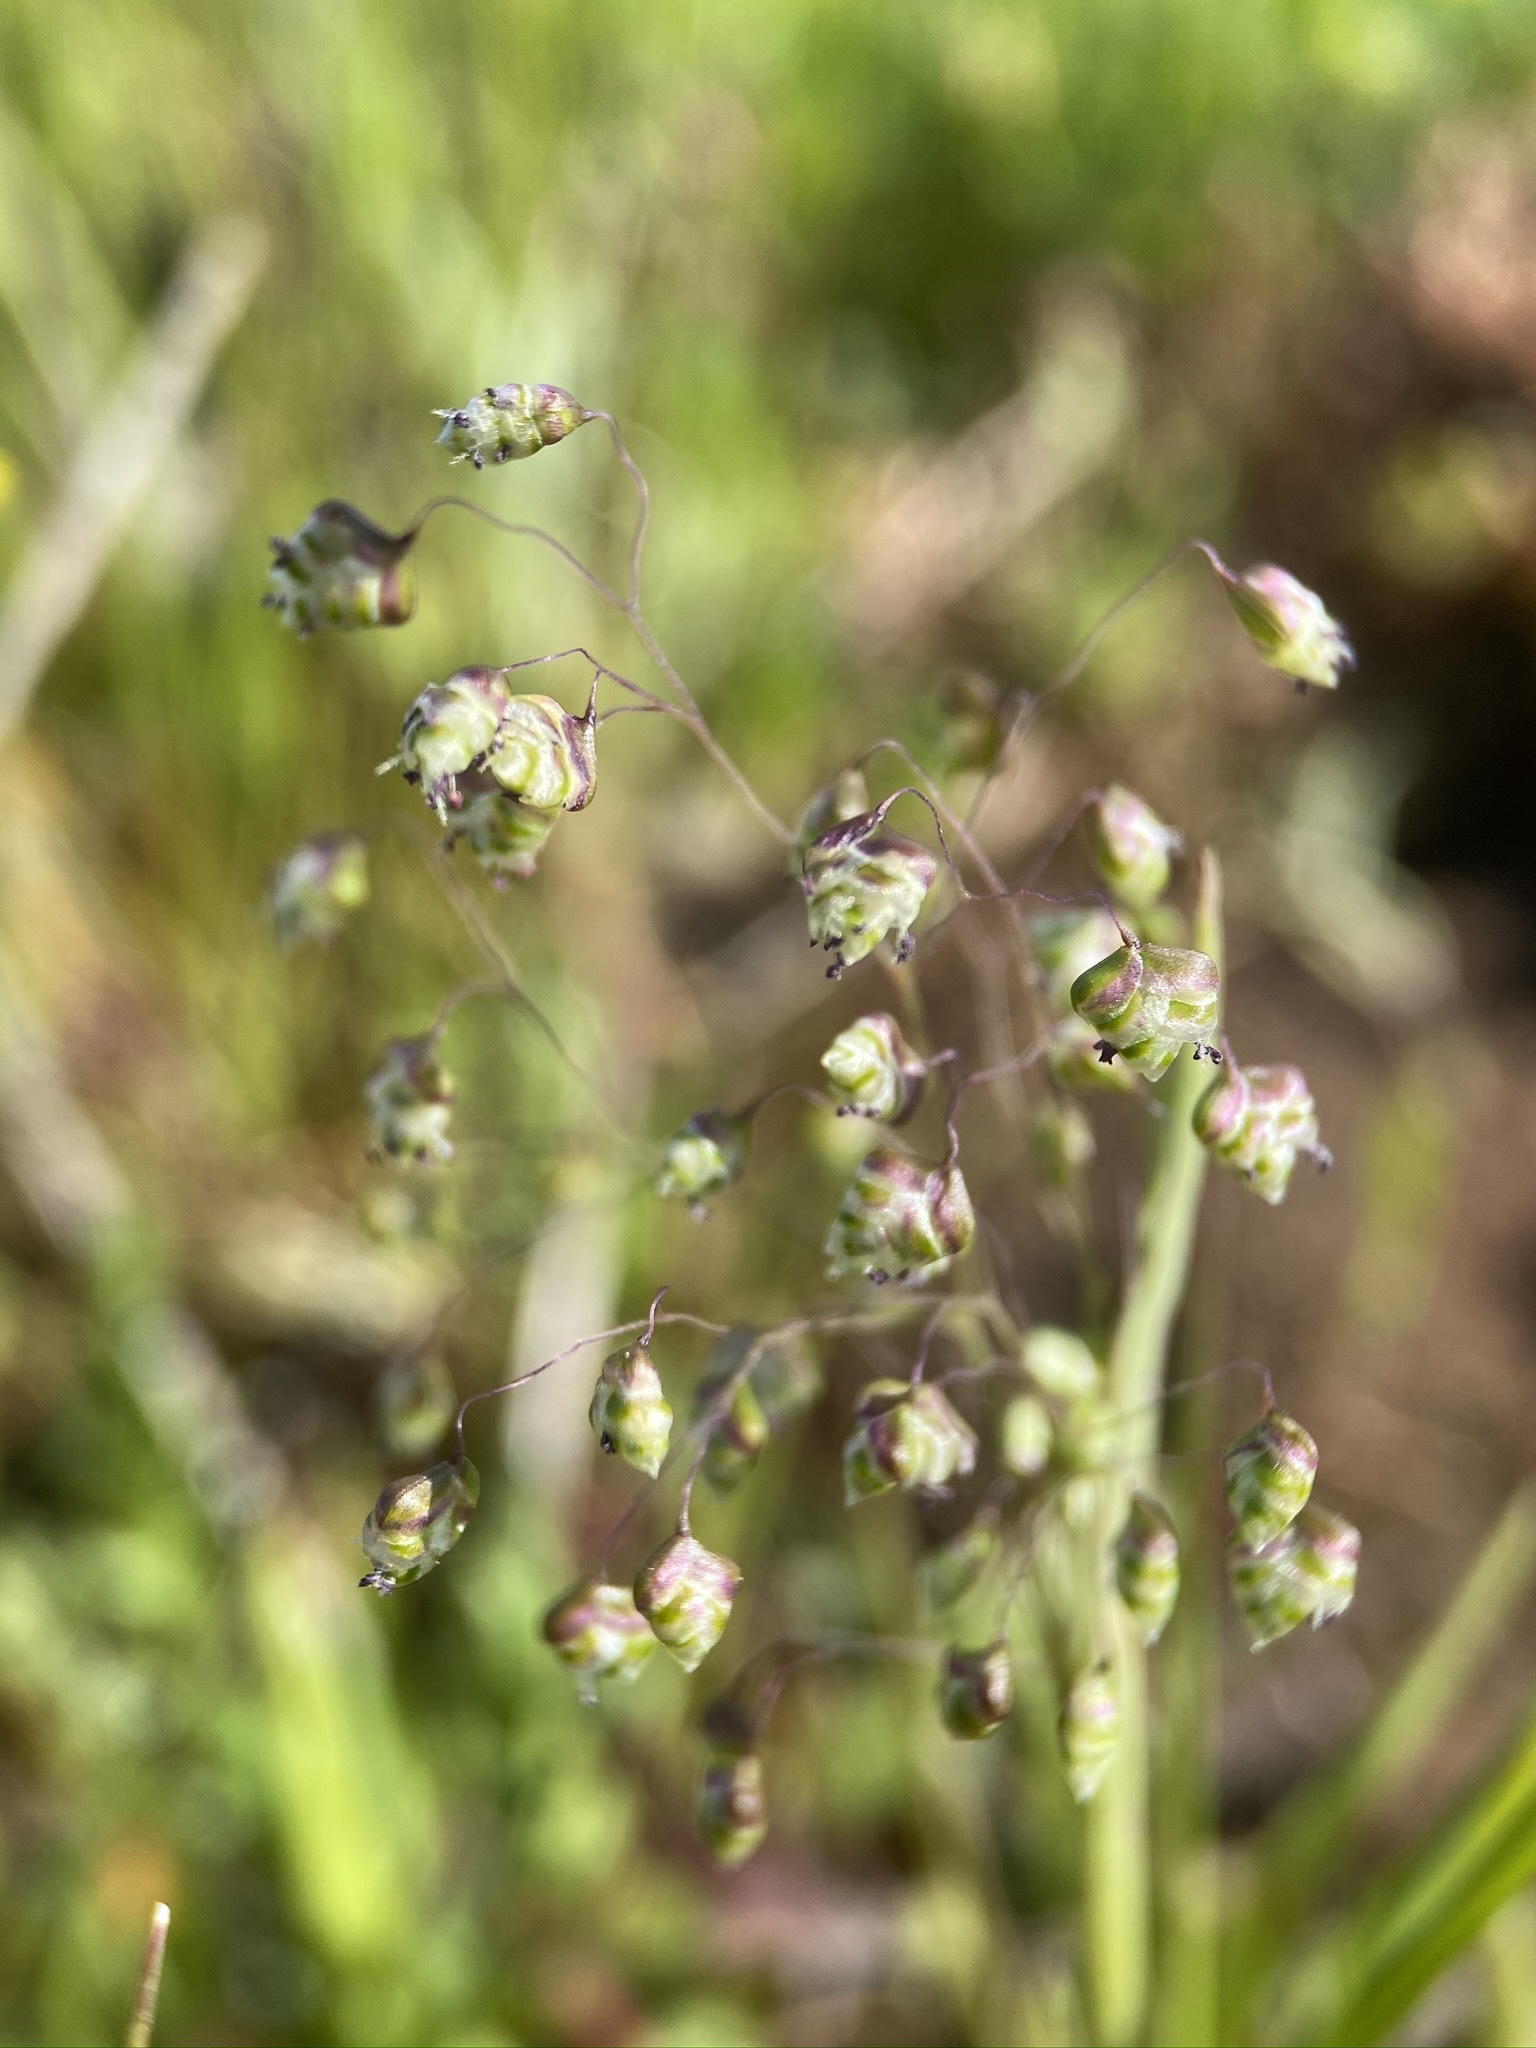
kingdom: Plantae
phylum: Tracheophyta
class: Liliopsida
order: Poales
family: Poaceae
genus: Briza
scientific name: Briza minor
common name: Lesser quaking-grass
